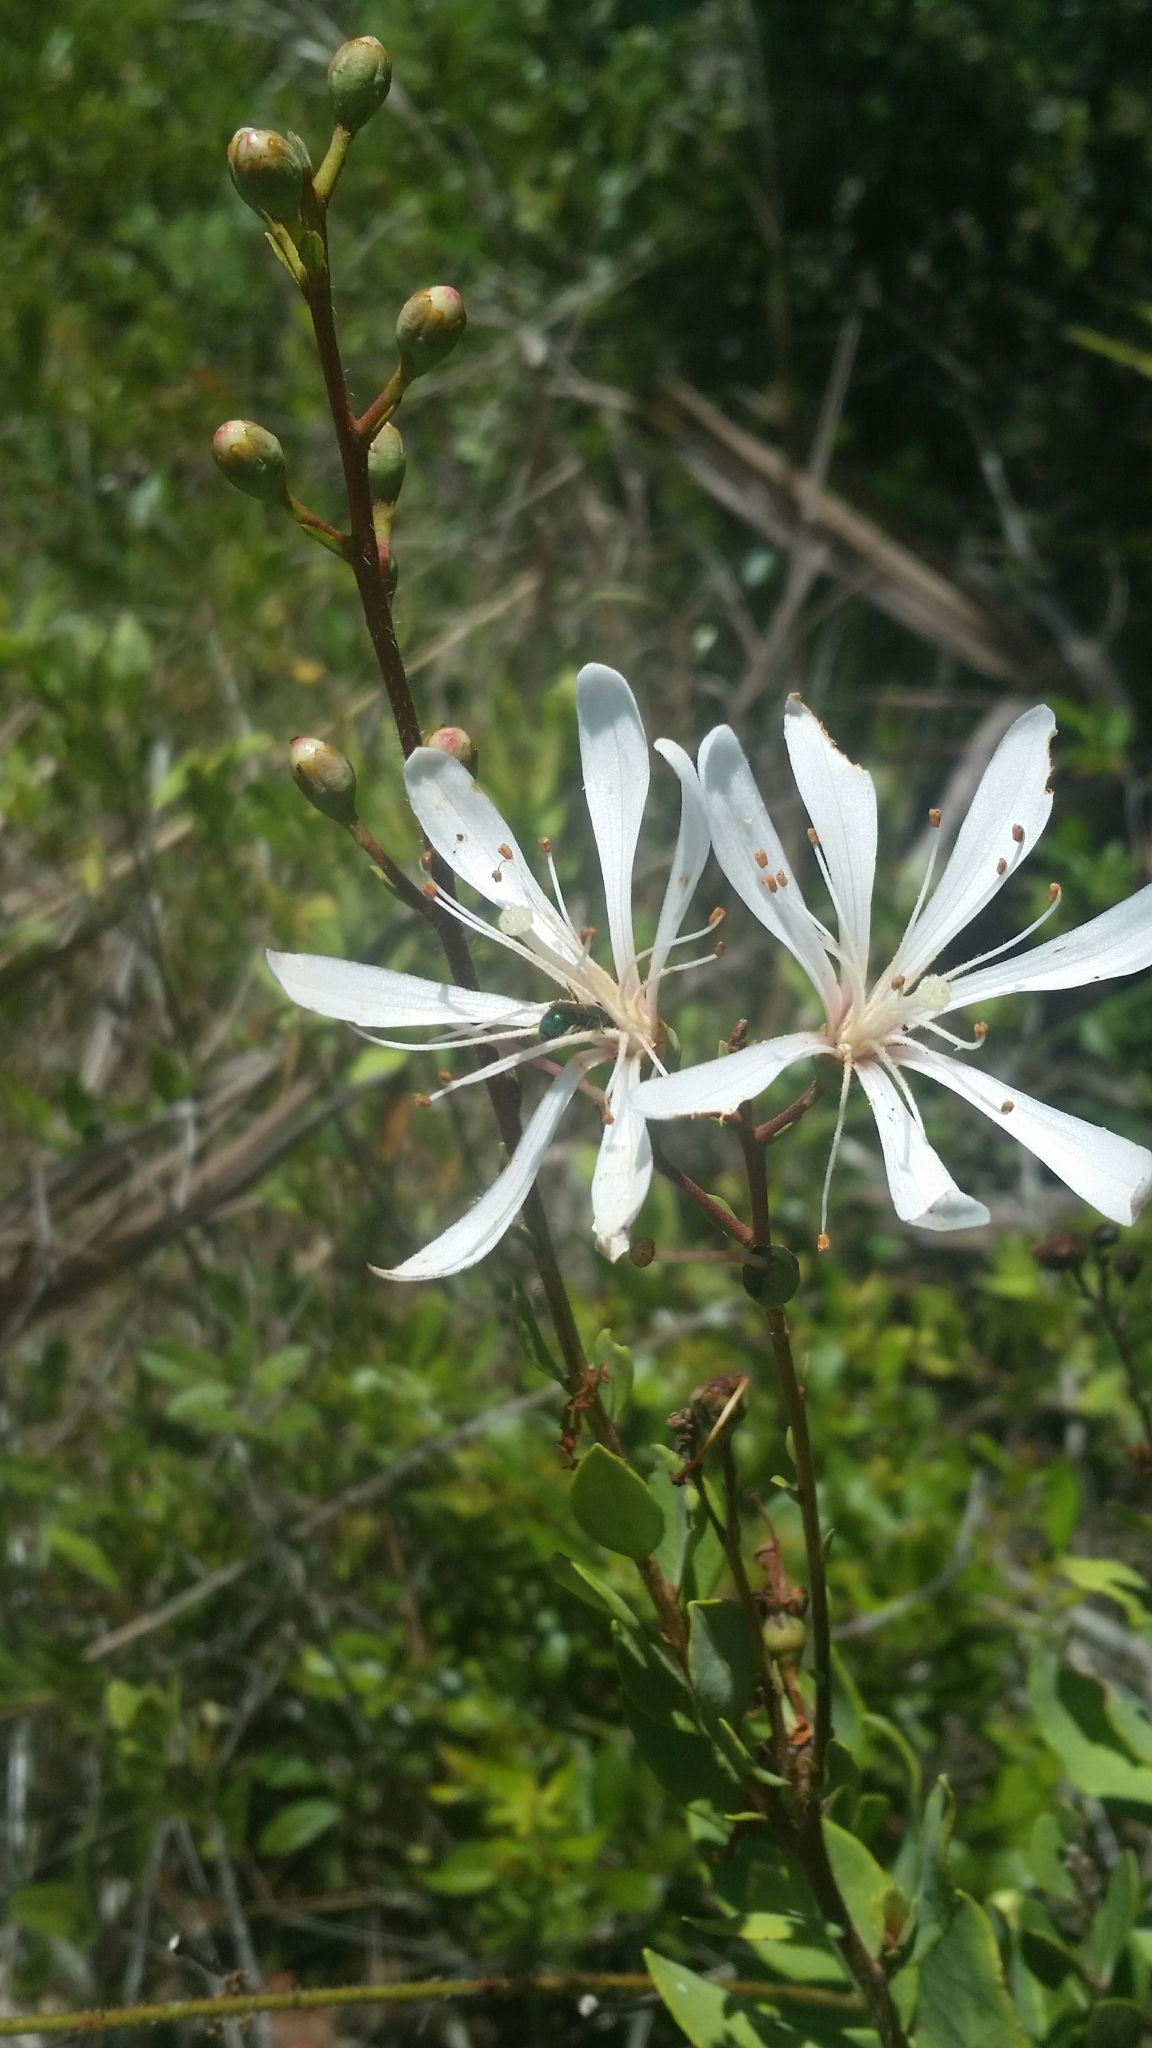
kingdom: Plantae
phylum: Tracheophyta
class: Magnoliopsida
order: Ericales
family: Ericaceae
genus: Bejaria
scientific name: Bejaria racemosa
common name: Tarflower
